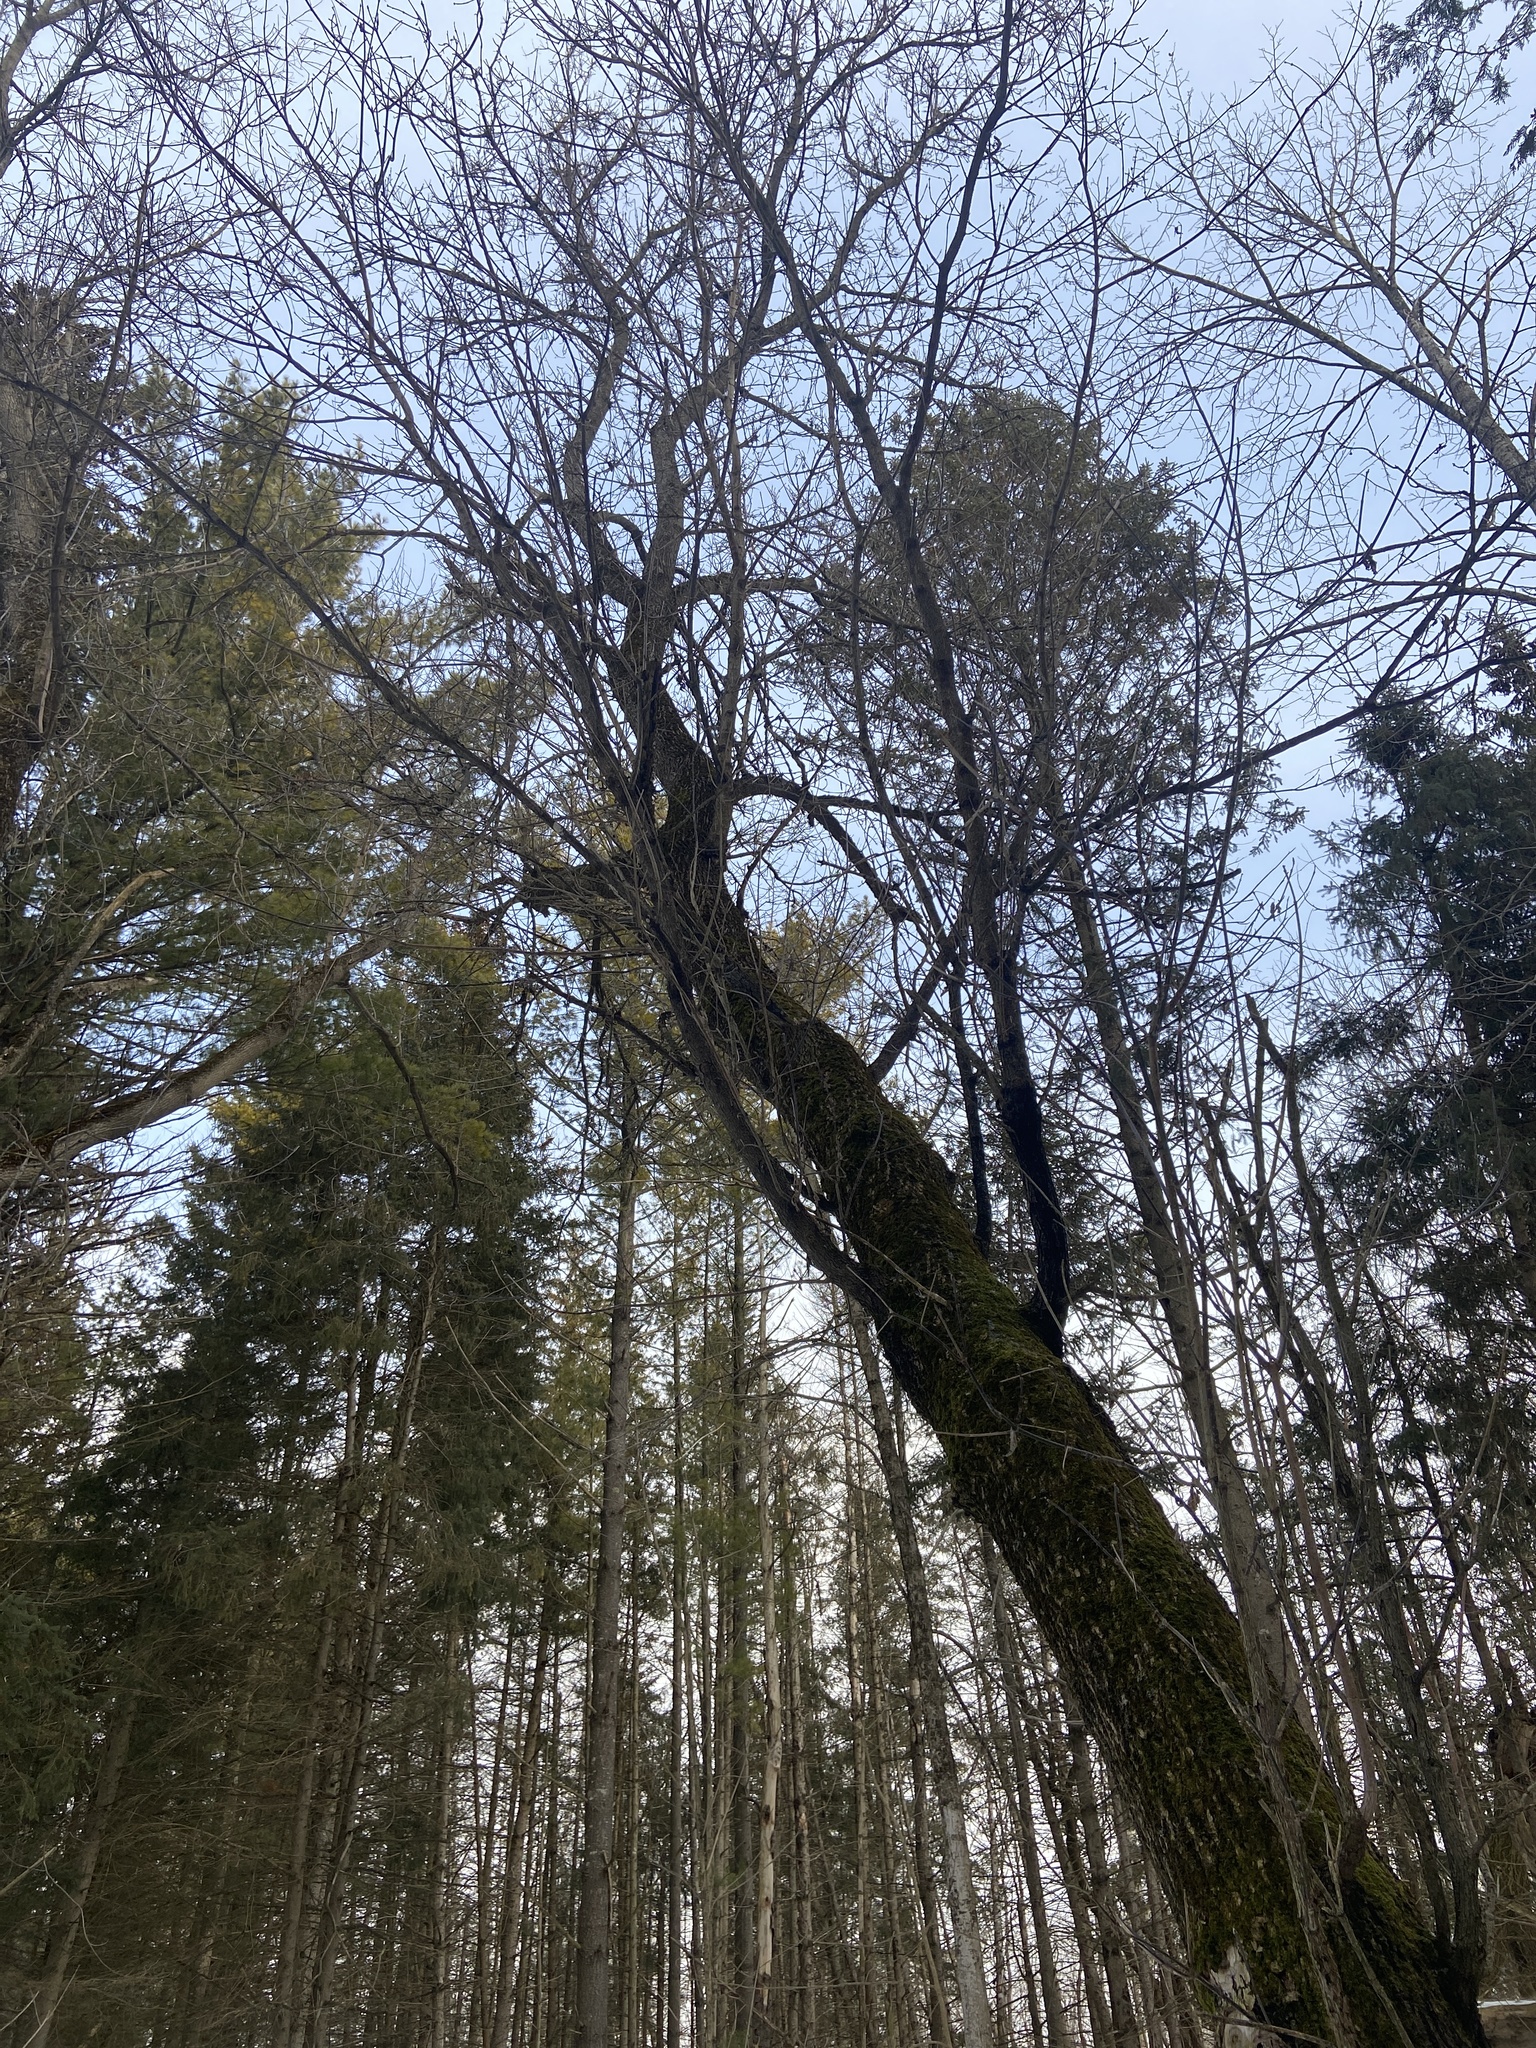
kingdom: Plantae
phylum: Tracheophyta
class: Magnoliopsida
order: Sapindales
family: Sapindaceae
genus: Acer
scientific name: Acer negundo
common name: Ashleaf maple
